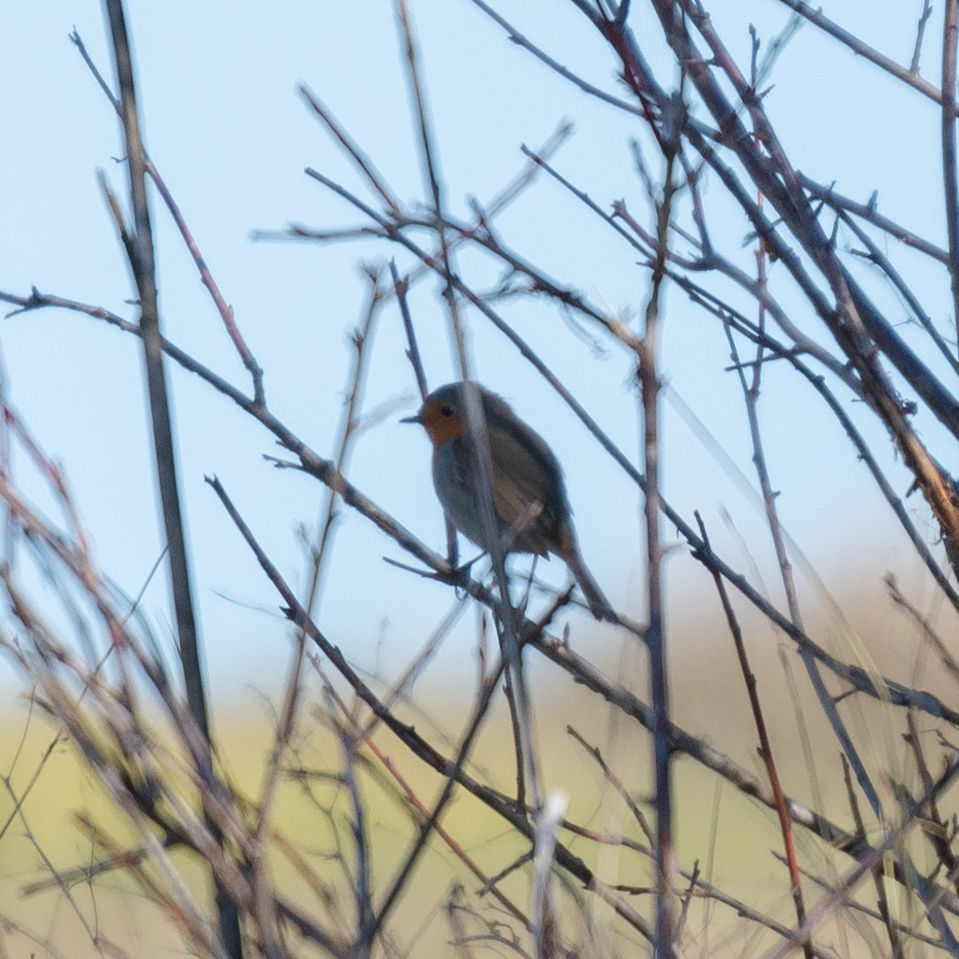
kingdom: Animalia
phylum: Chordata
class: Aves
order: Passeriformes
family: Muscicapidae
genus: Erithacus
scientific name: Erithacus rubecula
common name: European robin
